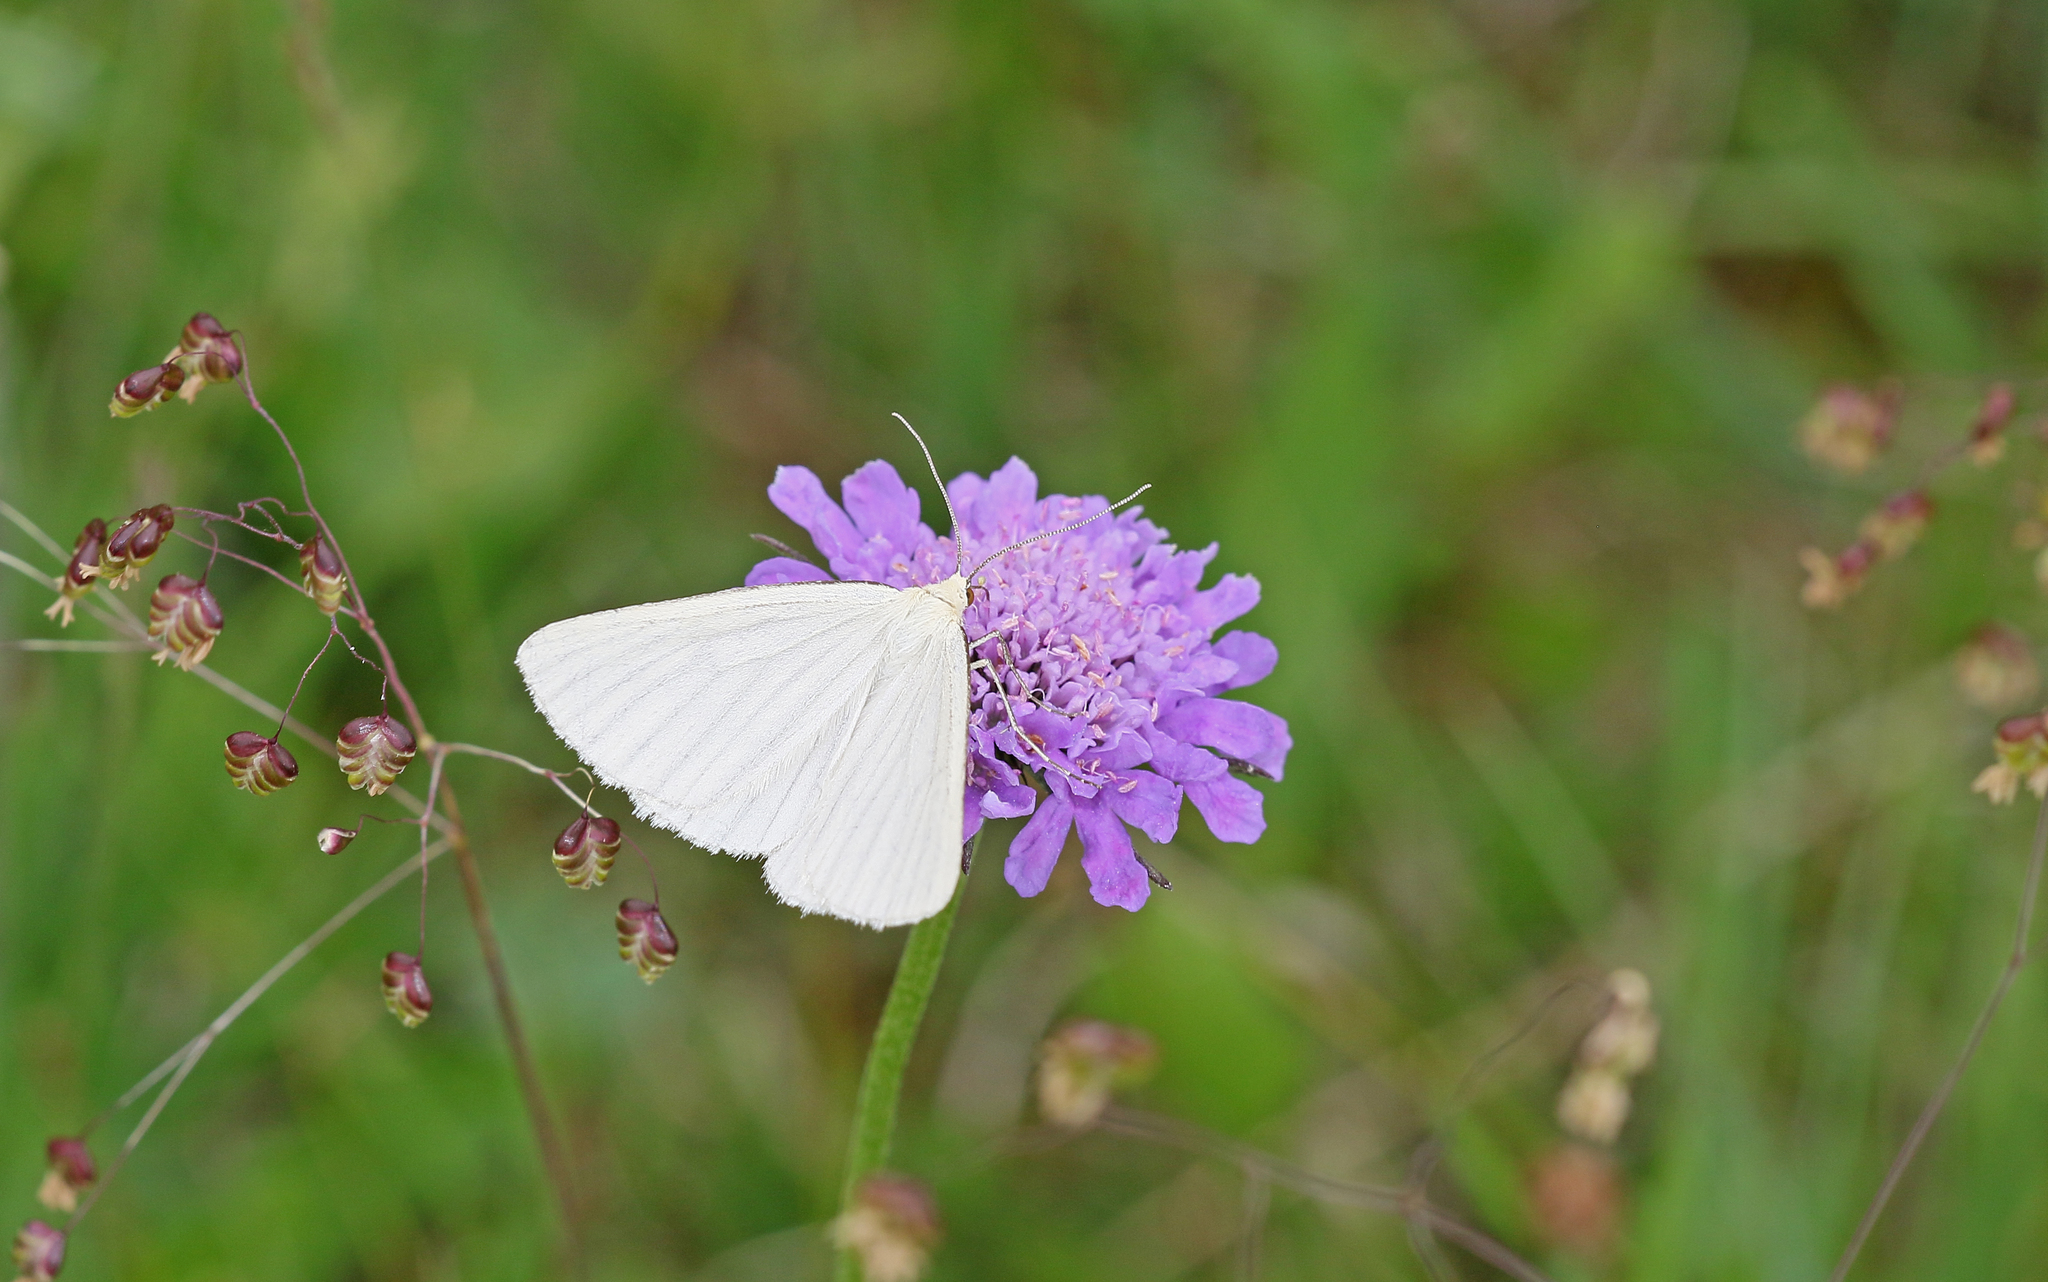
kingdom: Animalia
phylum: Arthropoda
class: Insecta
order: Lepidoptera
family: Geometridae
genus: Siona
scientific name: Siona lineata
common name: Black-veined moth
